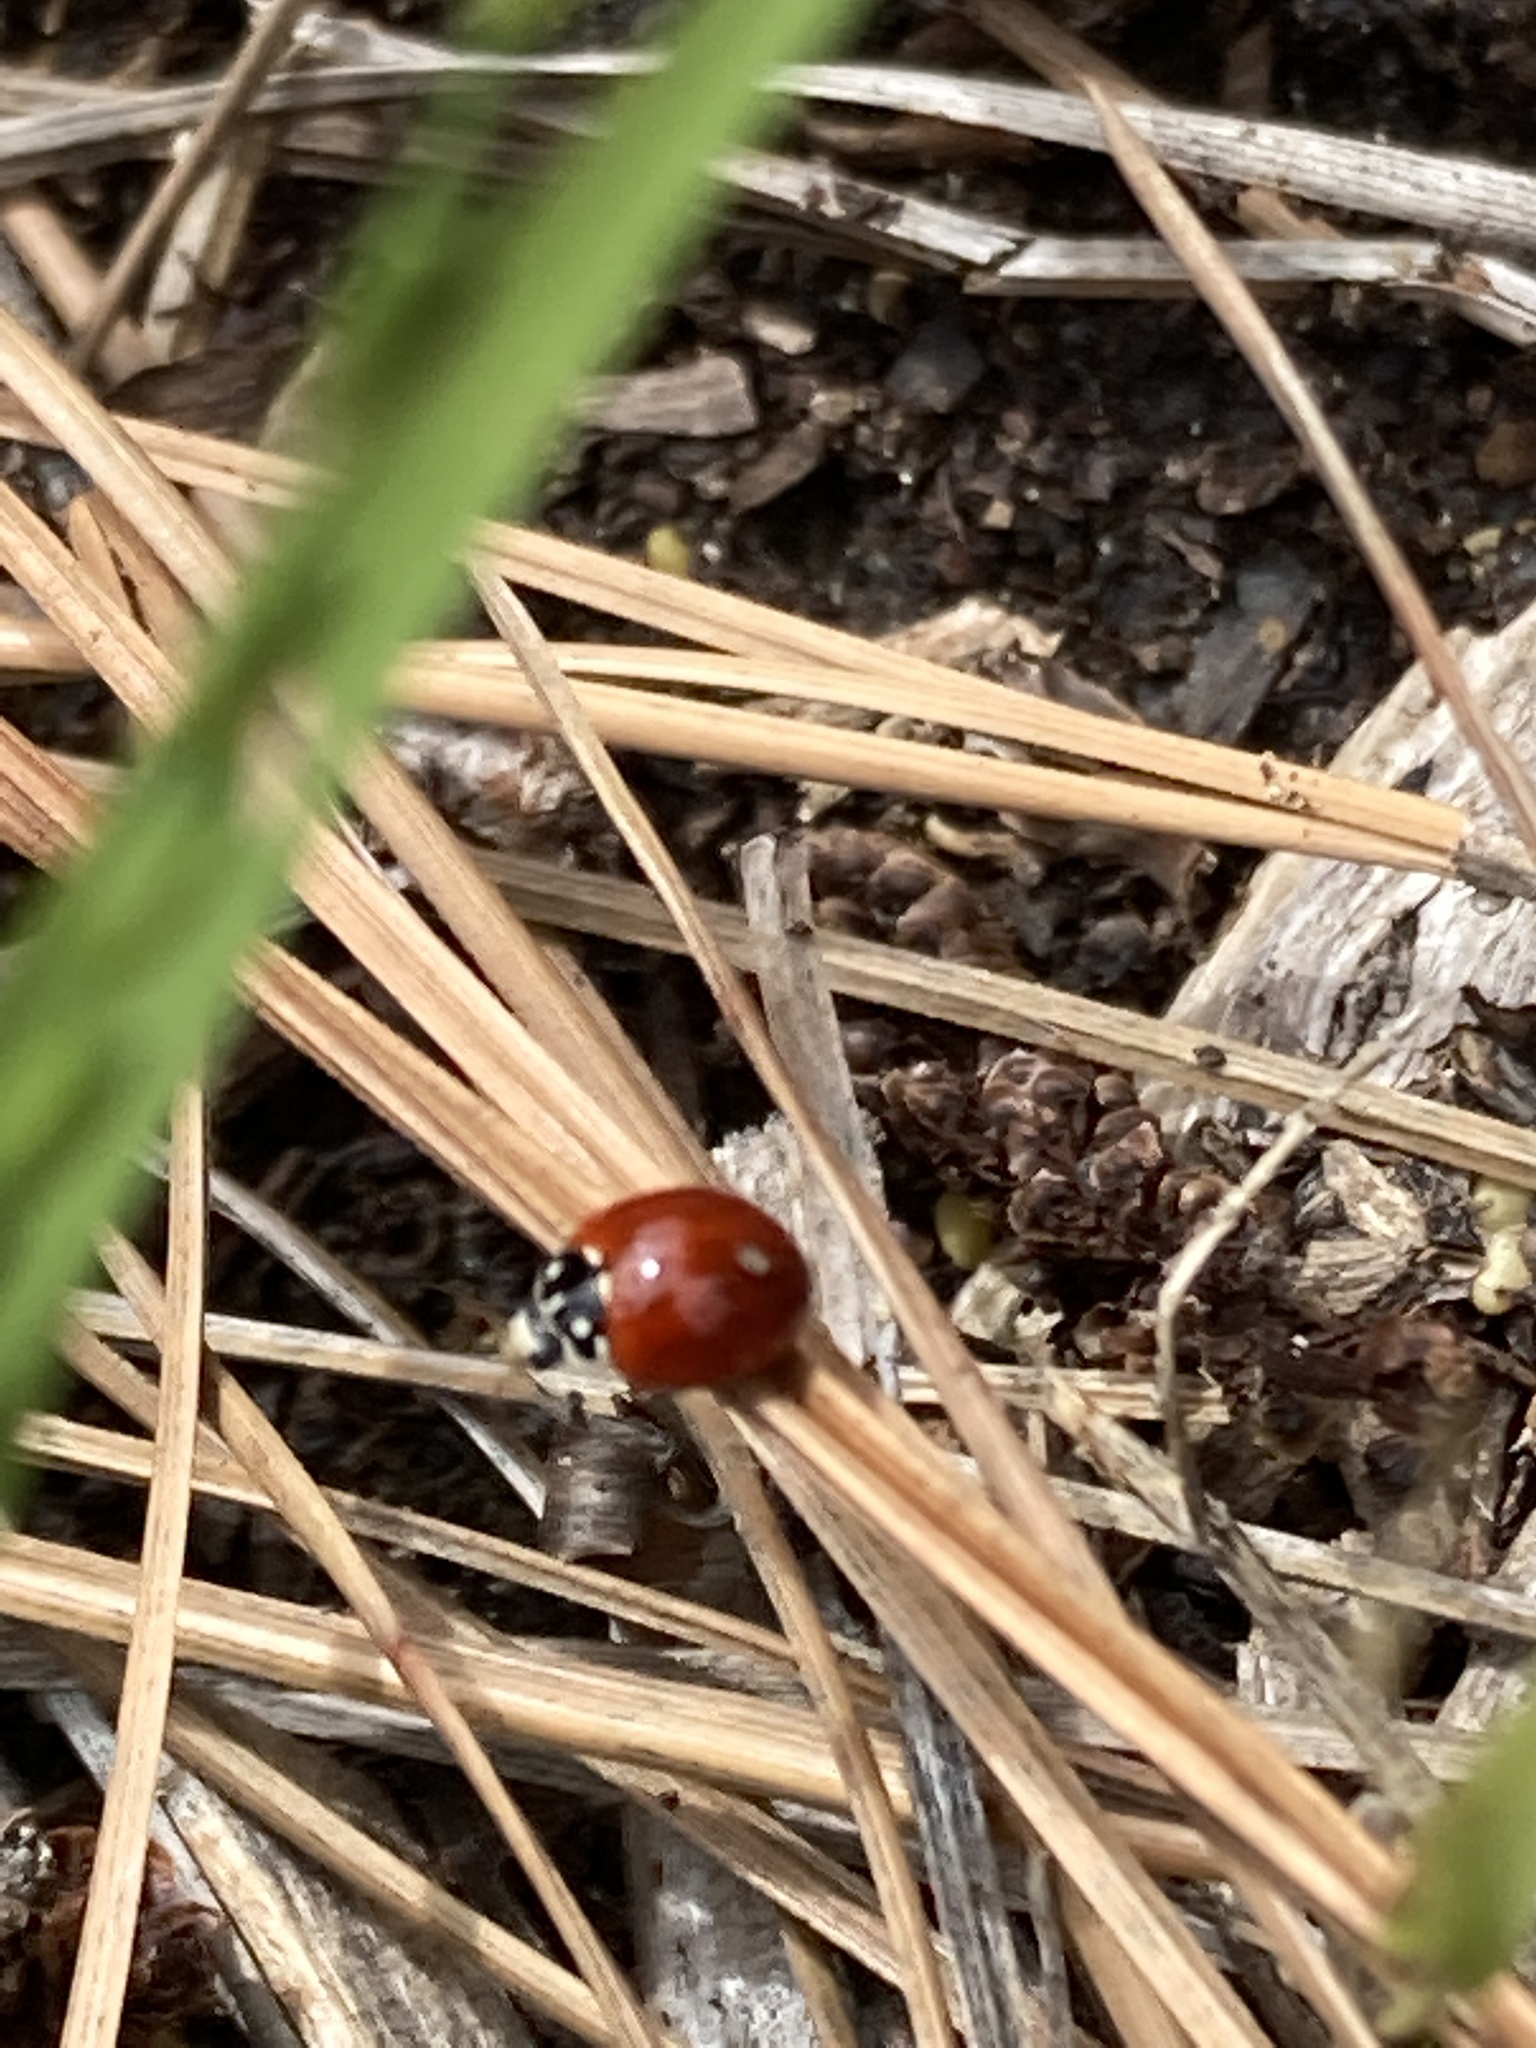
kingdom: Animalia
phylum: Arthropoda
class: Insecta
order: Coleoptera
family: Coccinellidae
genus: Cycloneda
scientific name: Cycloneda sanguinea
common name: Ladybird beetle
